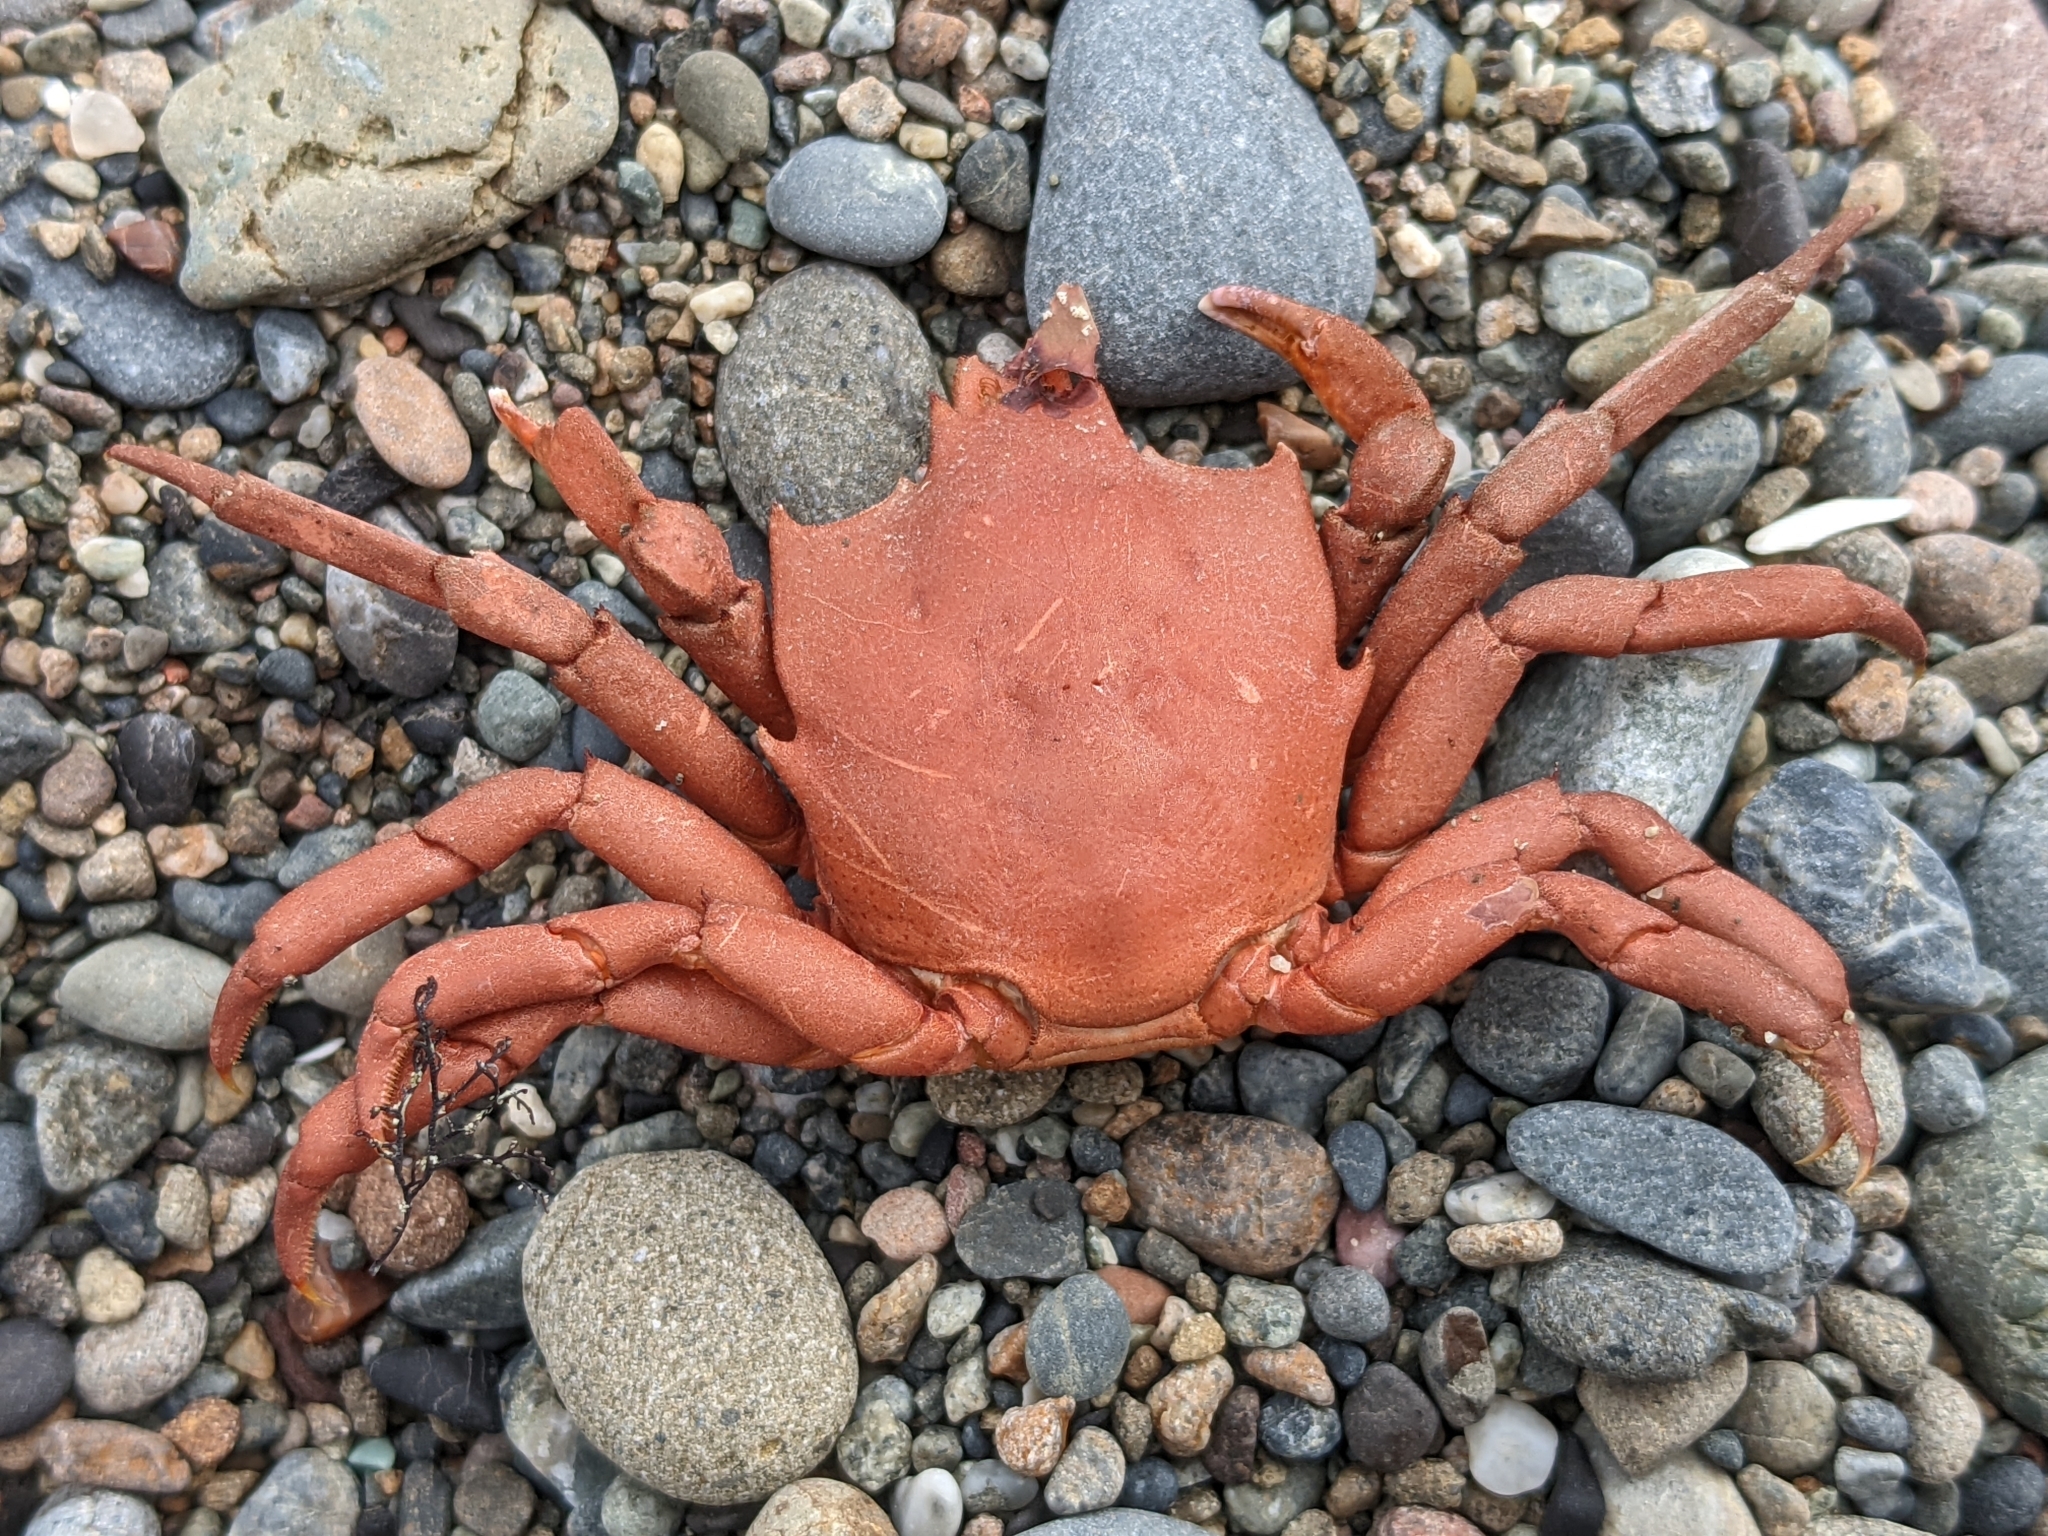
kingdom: Animalia
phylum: Arthropoda
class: Malacostraca
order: Decapoda
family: Epialtidae
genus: Pugettia
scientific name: Pugettia producta
